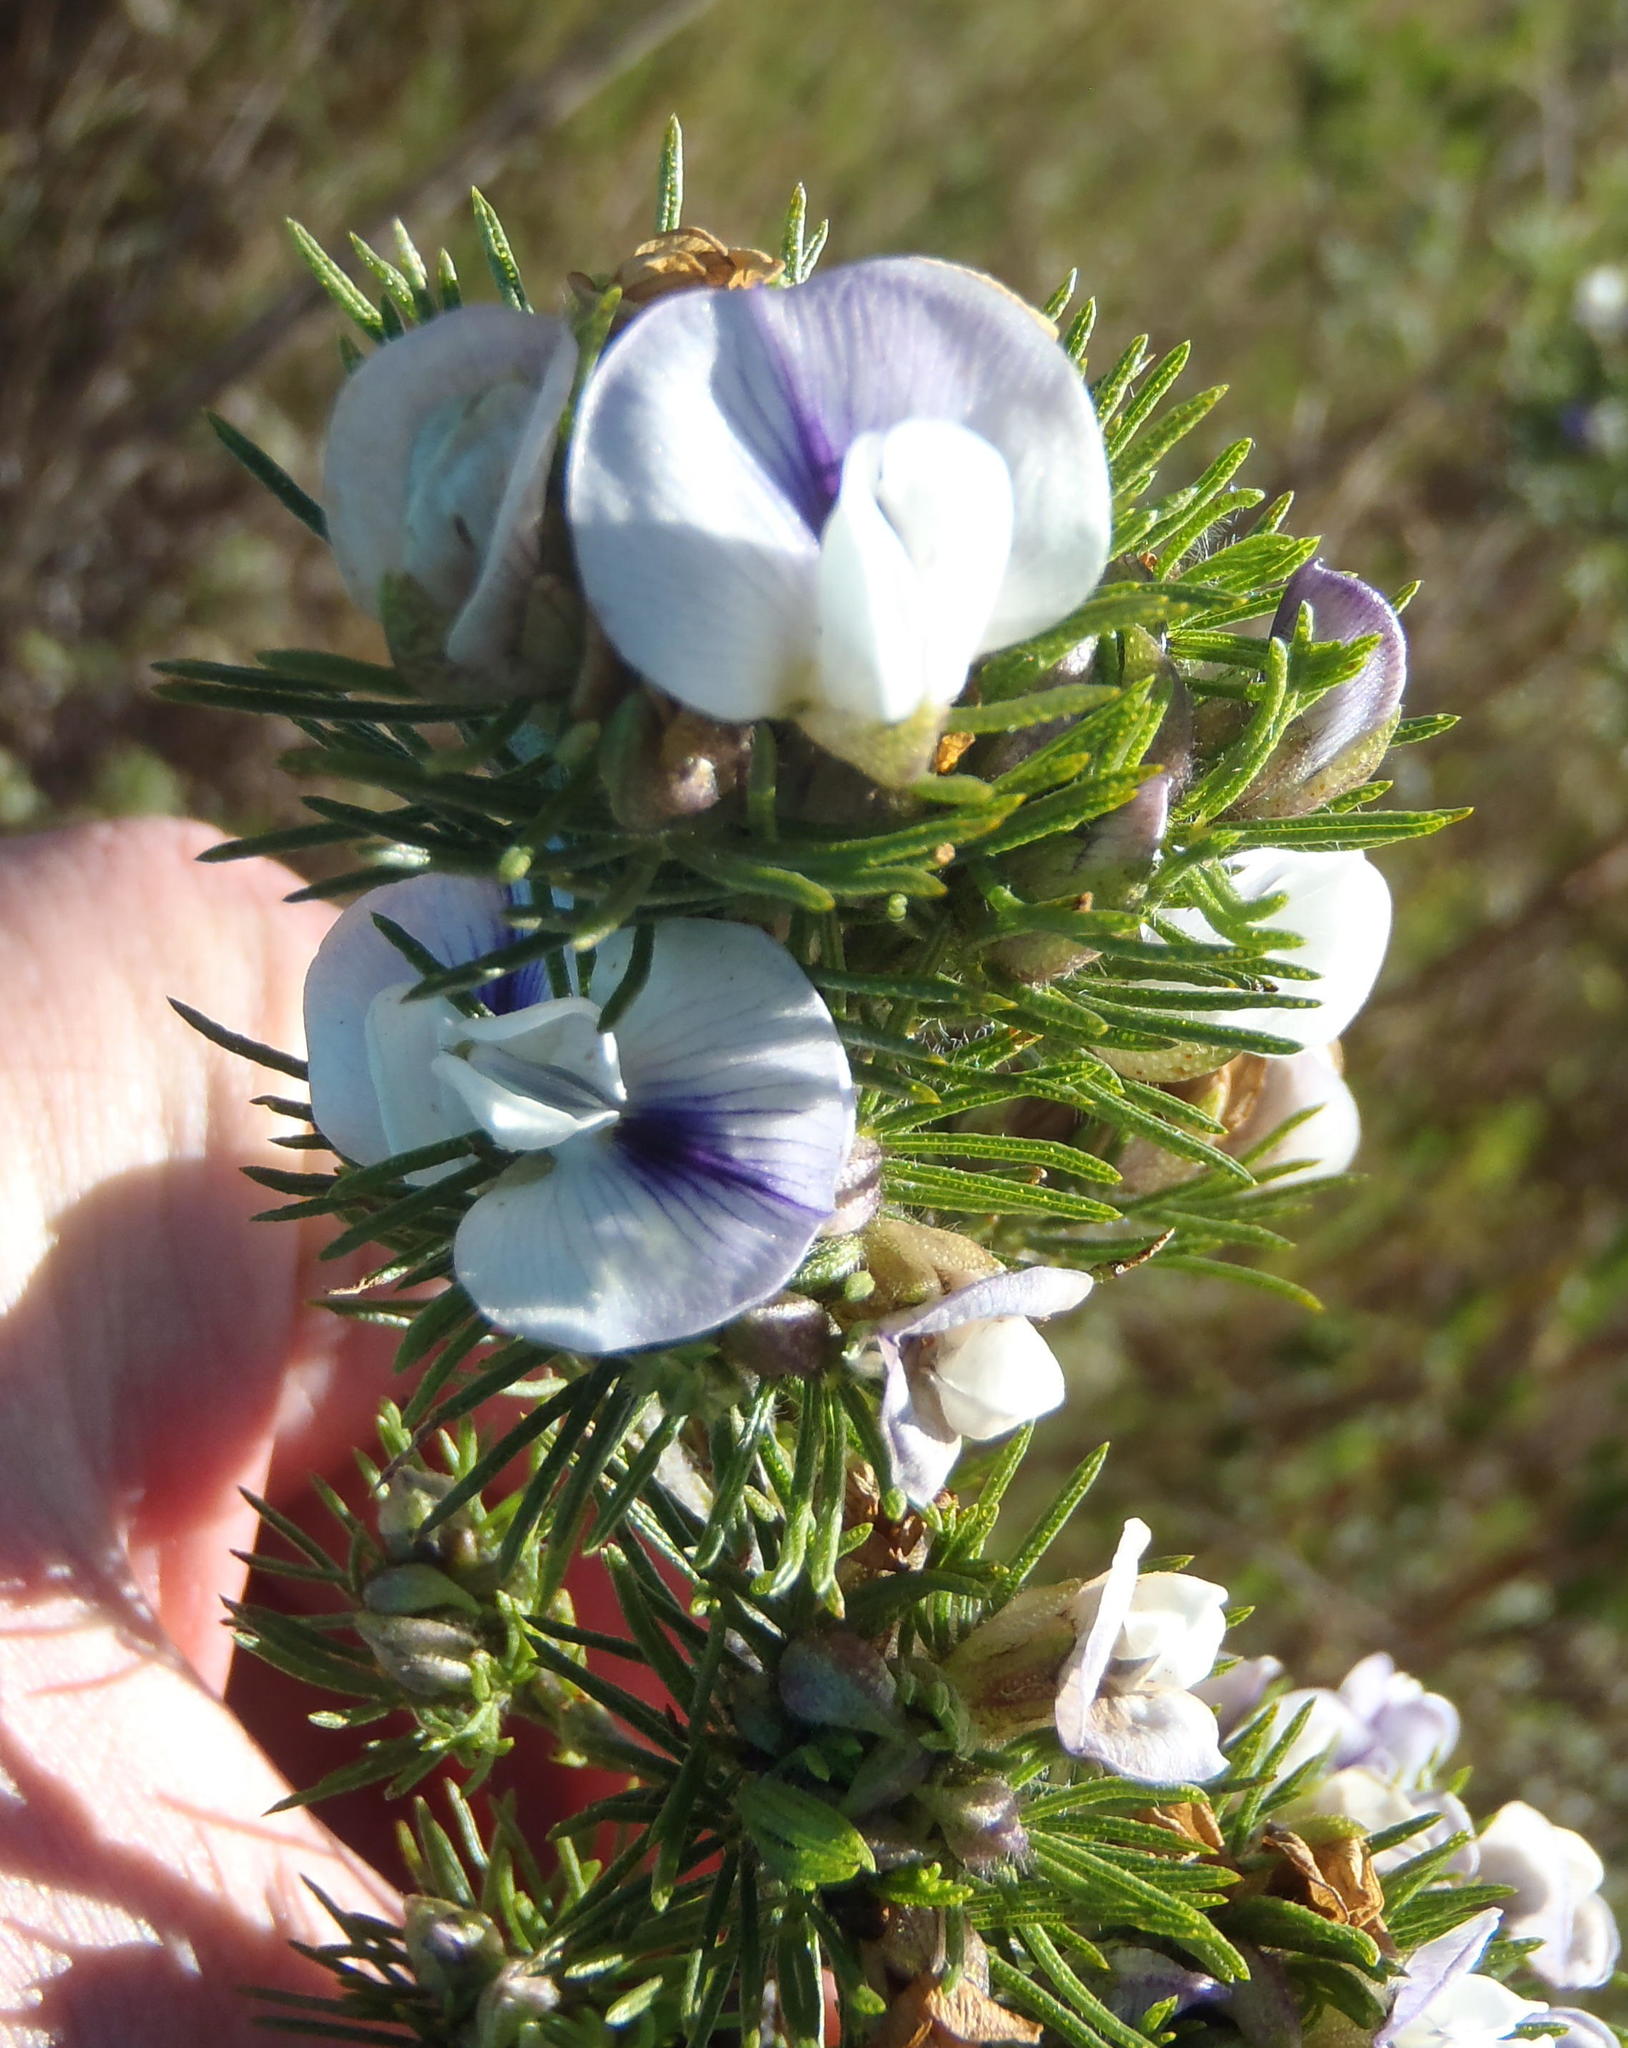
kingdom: Plantae
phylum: Tracheophyta
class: Magnoliopsida
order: Fabales
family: Fabaceae
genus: Psoralea
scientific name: Psoralea speciosa
